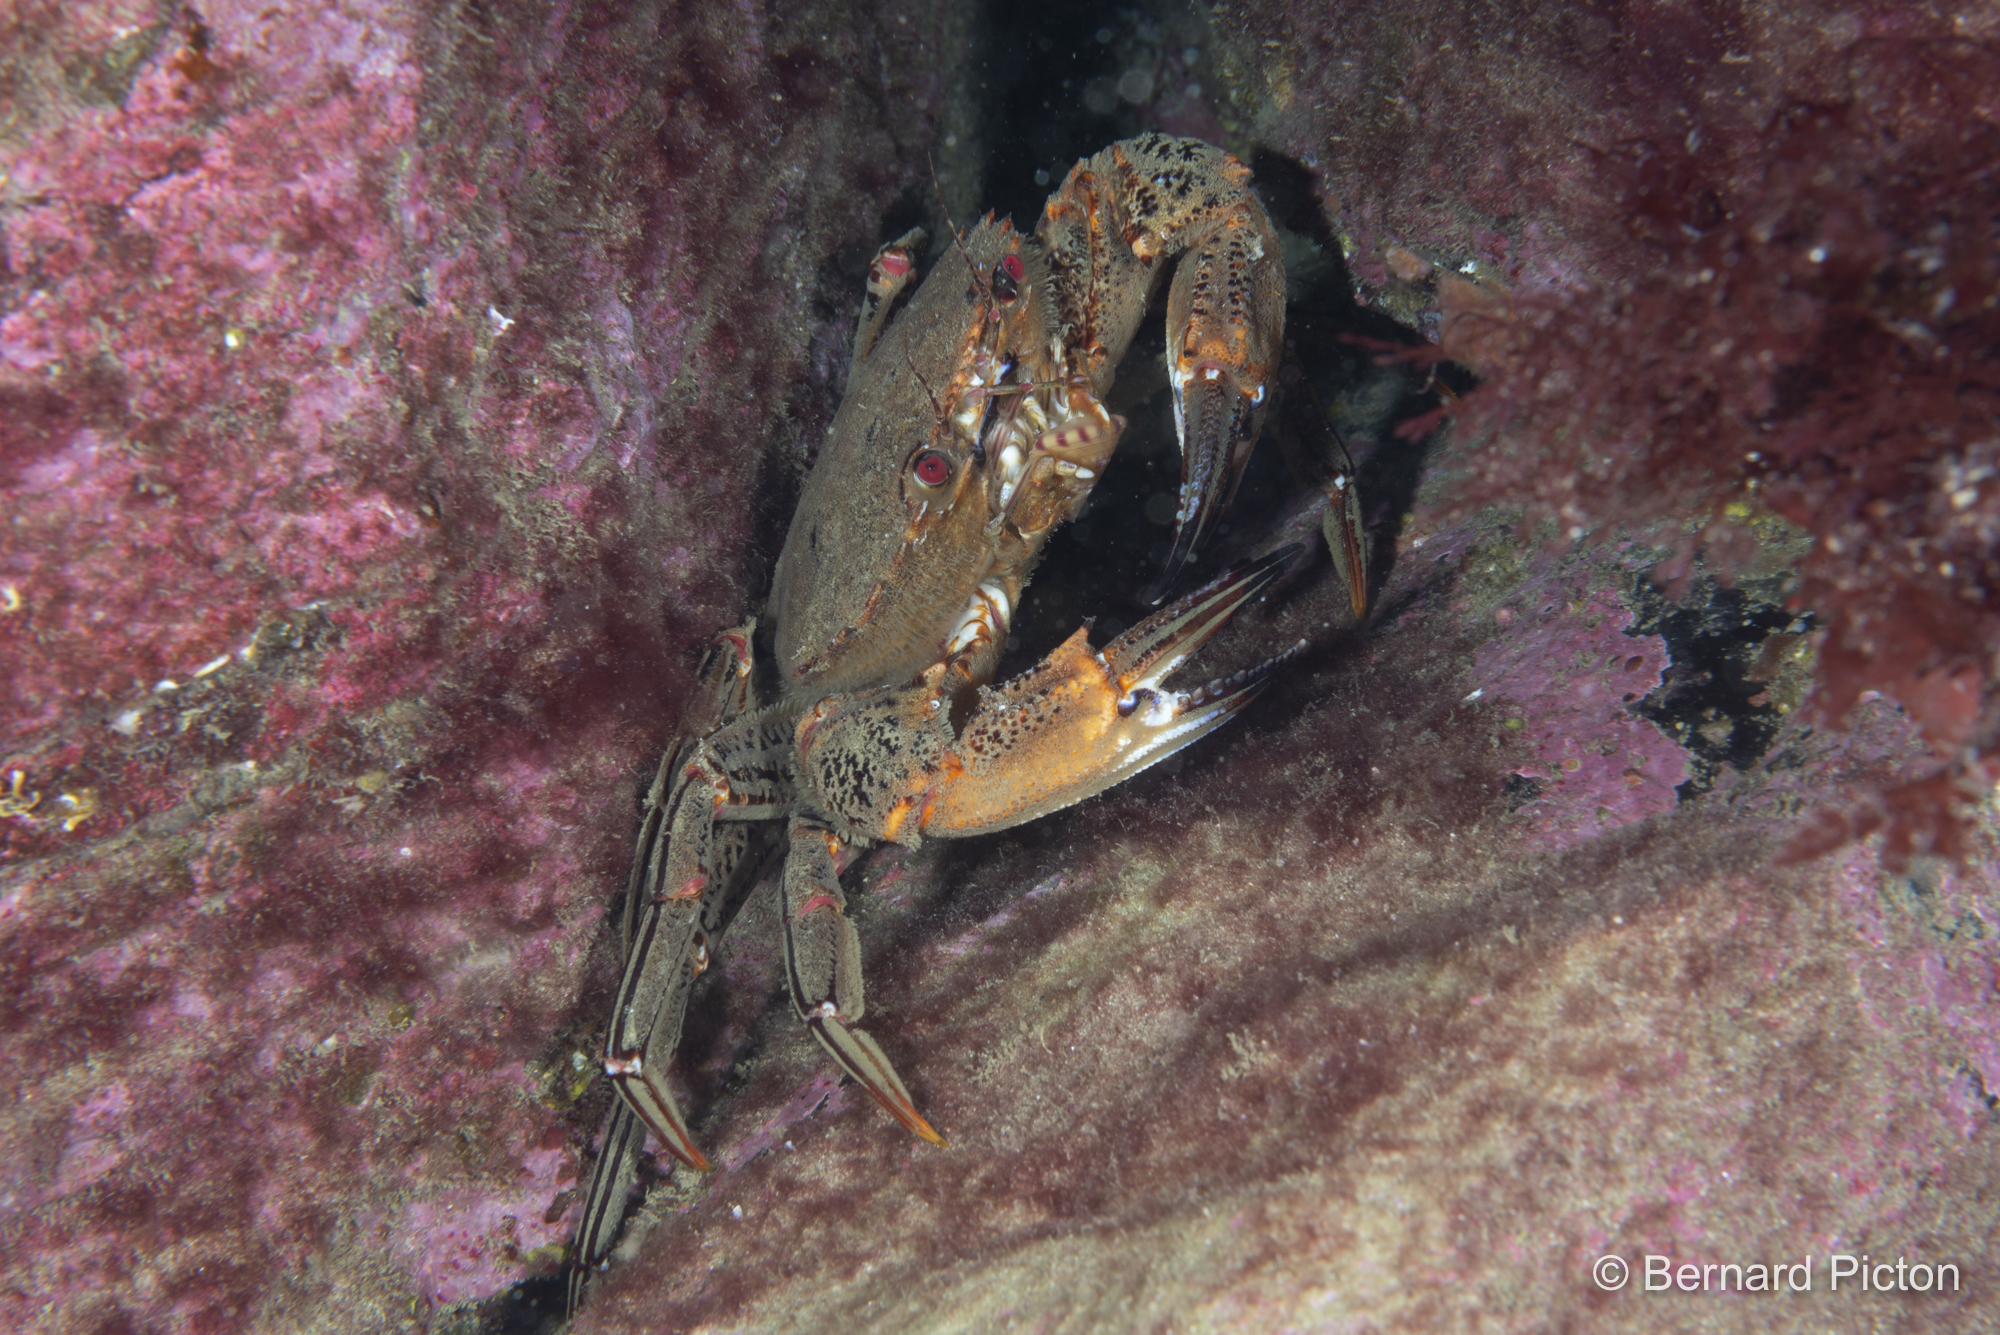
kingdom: Animalia
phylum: Arthropoda
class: Malacostraca
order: Decapoda
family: Polybiidae
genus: Necora
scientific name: Necora puber
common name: Velvet swimming crab
